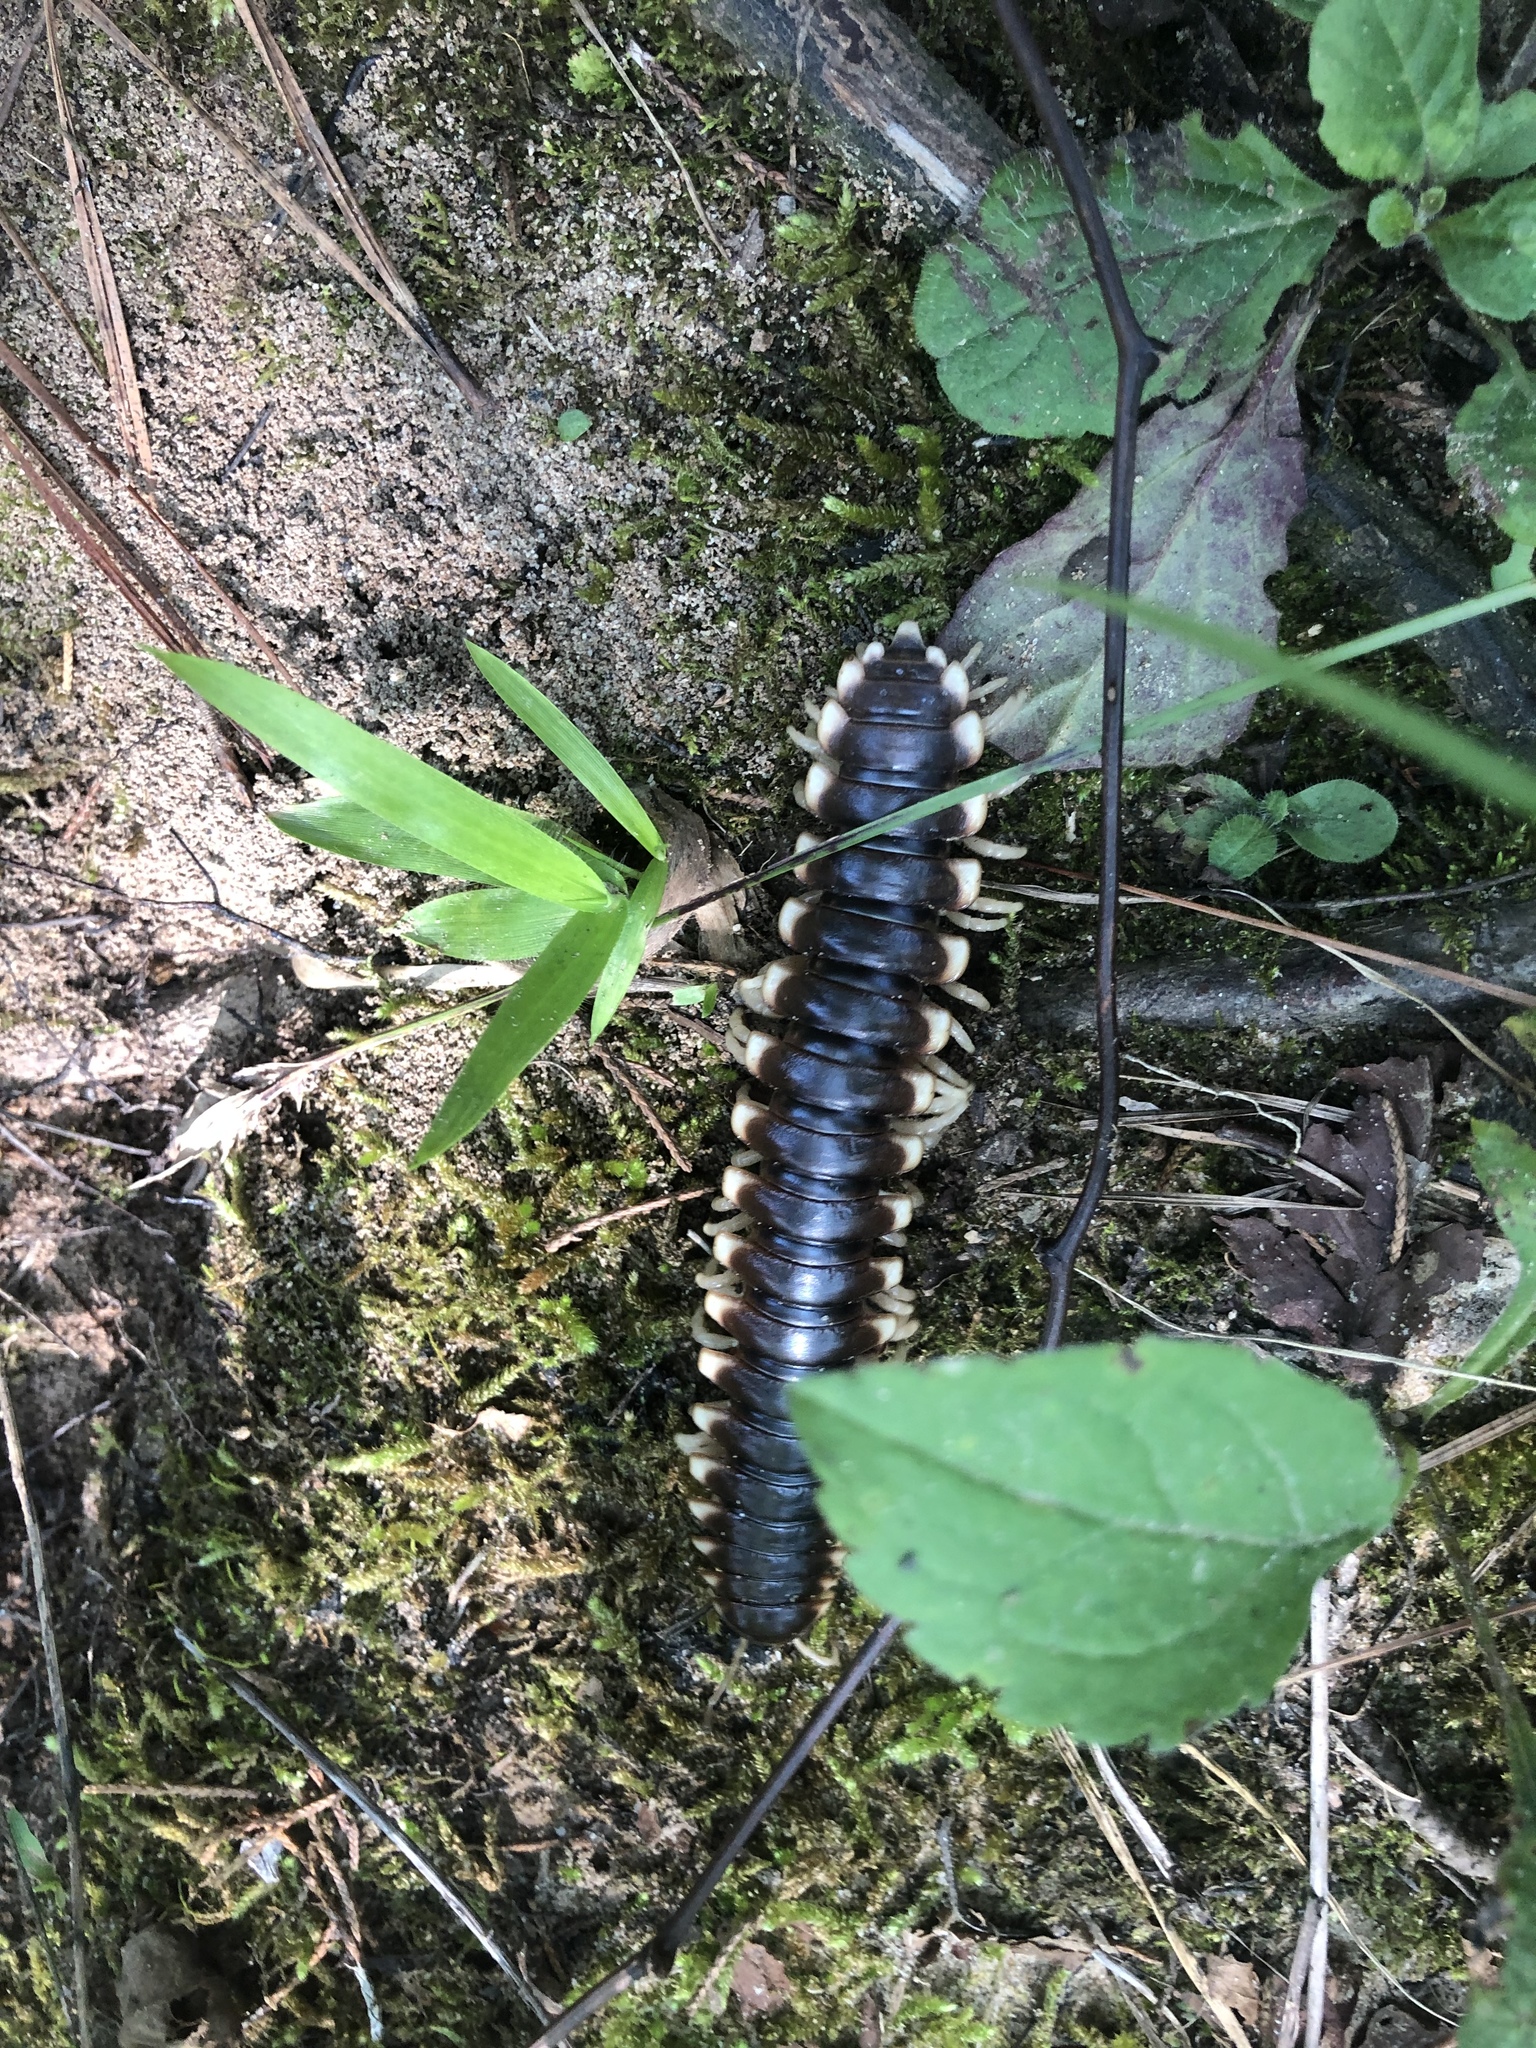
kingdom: Animalia
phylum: Arthropoda
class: Diplopoda
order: Polydesmida
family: Xystodesmidae
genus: Pachydesmus
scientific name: Pachydesmus crassicutis
